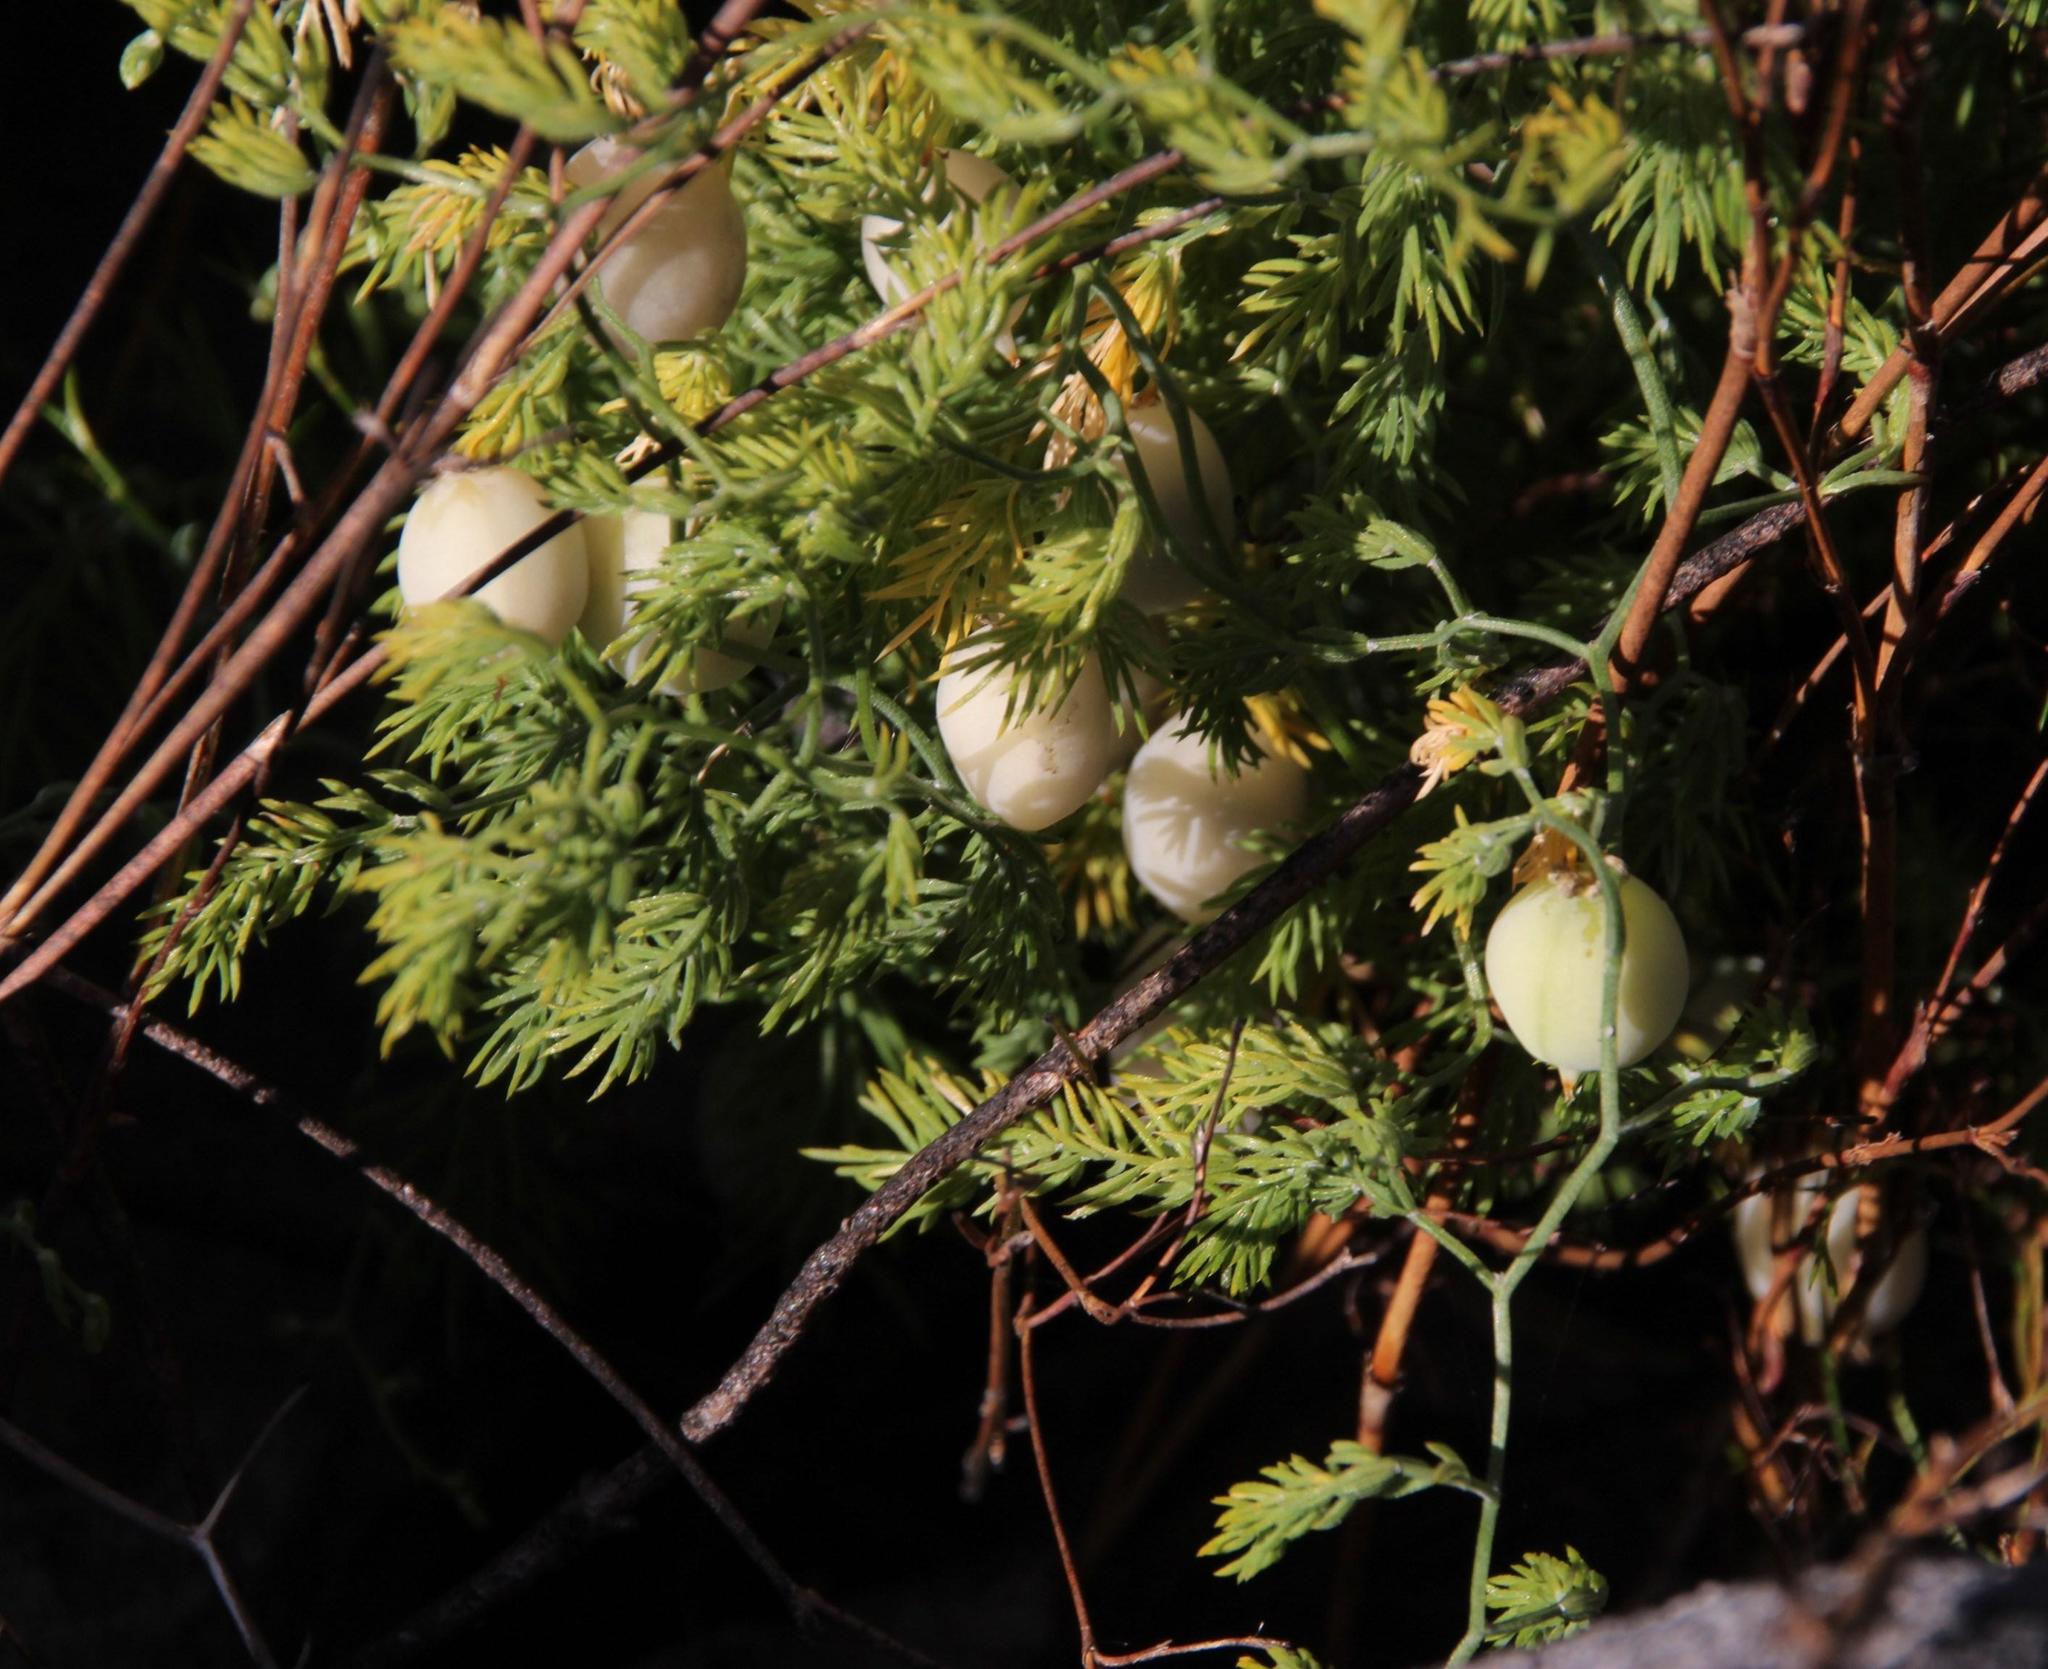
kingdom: Plantae
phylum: Tracheophyta
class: Liliopsida
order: Asparagales
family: Asparagaceae
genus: Asparagus
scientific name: Asparagus declinatus
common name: Bridal-creeper
